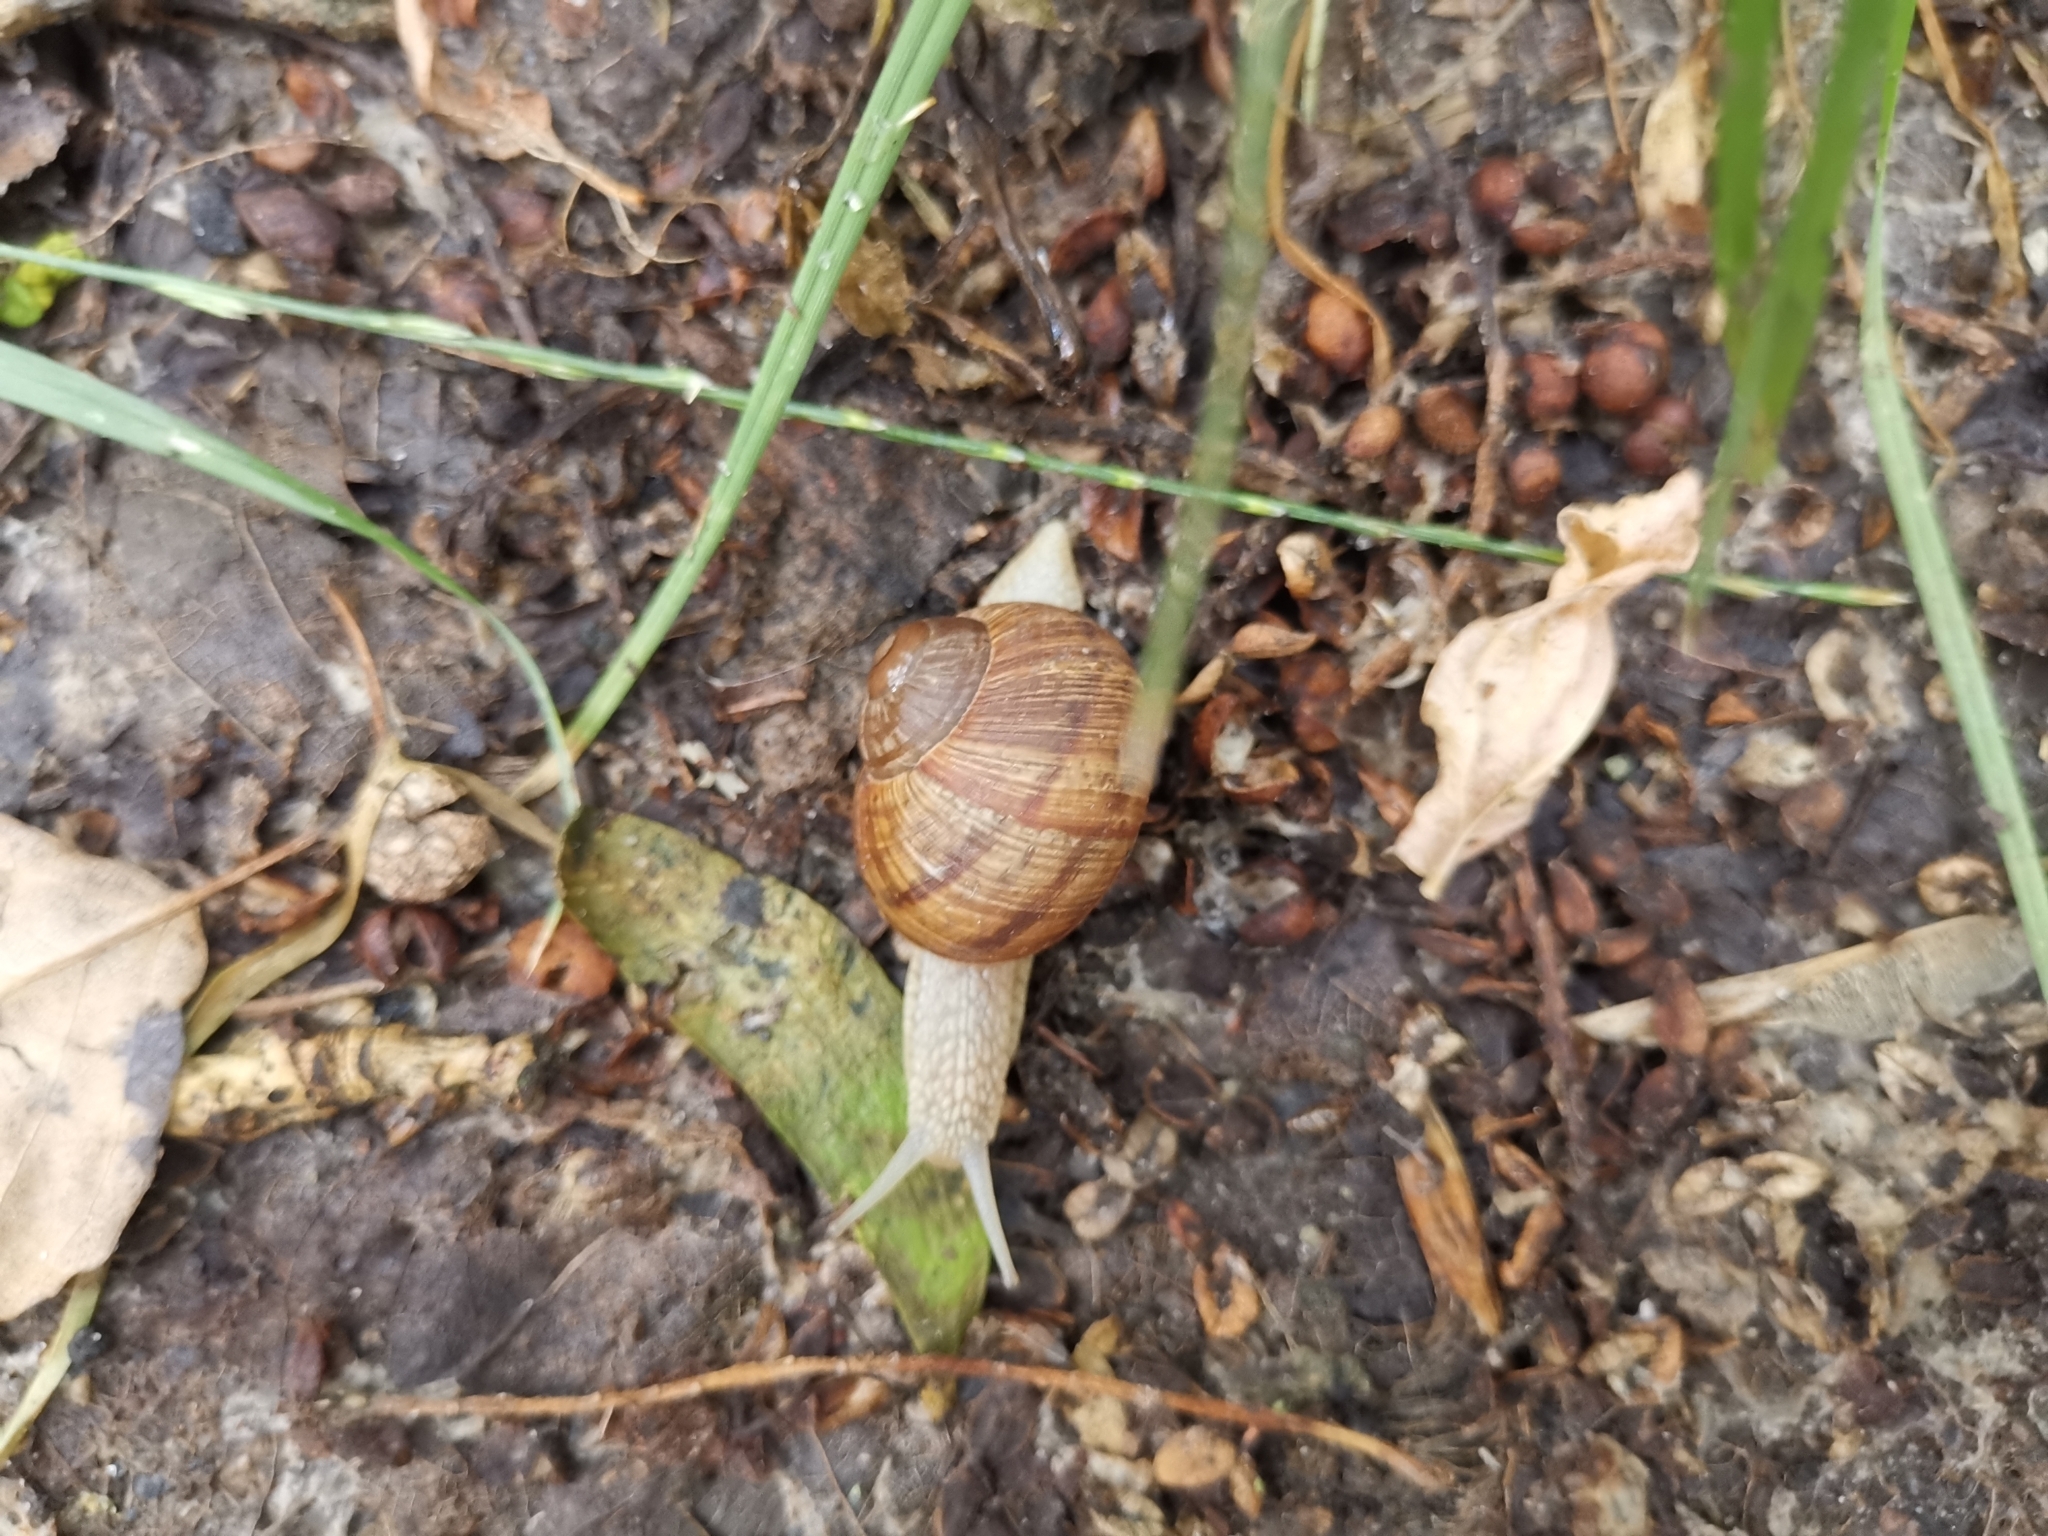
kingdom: Animalia
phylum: Mollusca
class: Gastropoda
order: Stylommatophora
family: Helicidae
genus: Helix
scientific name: Helix pomatia
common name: Roman snail
